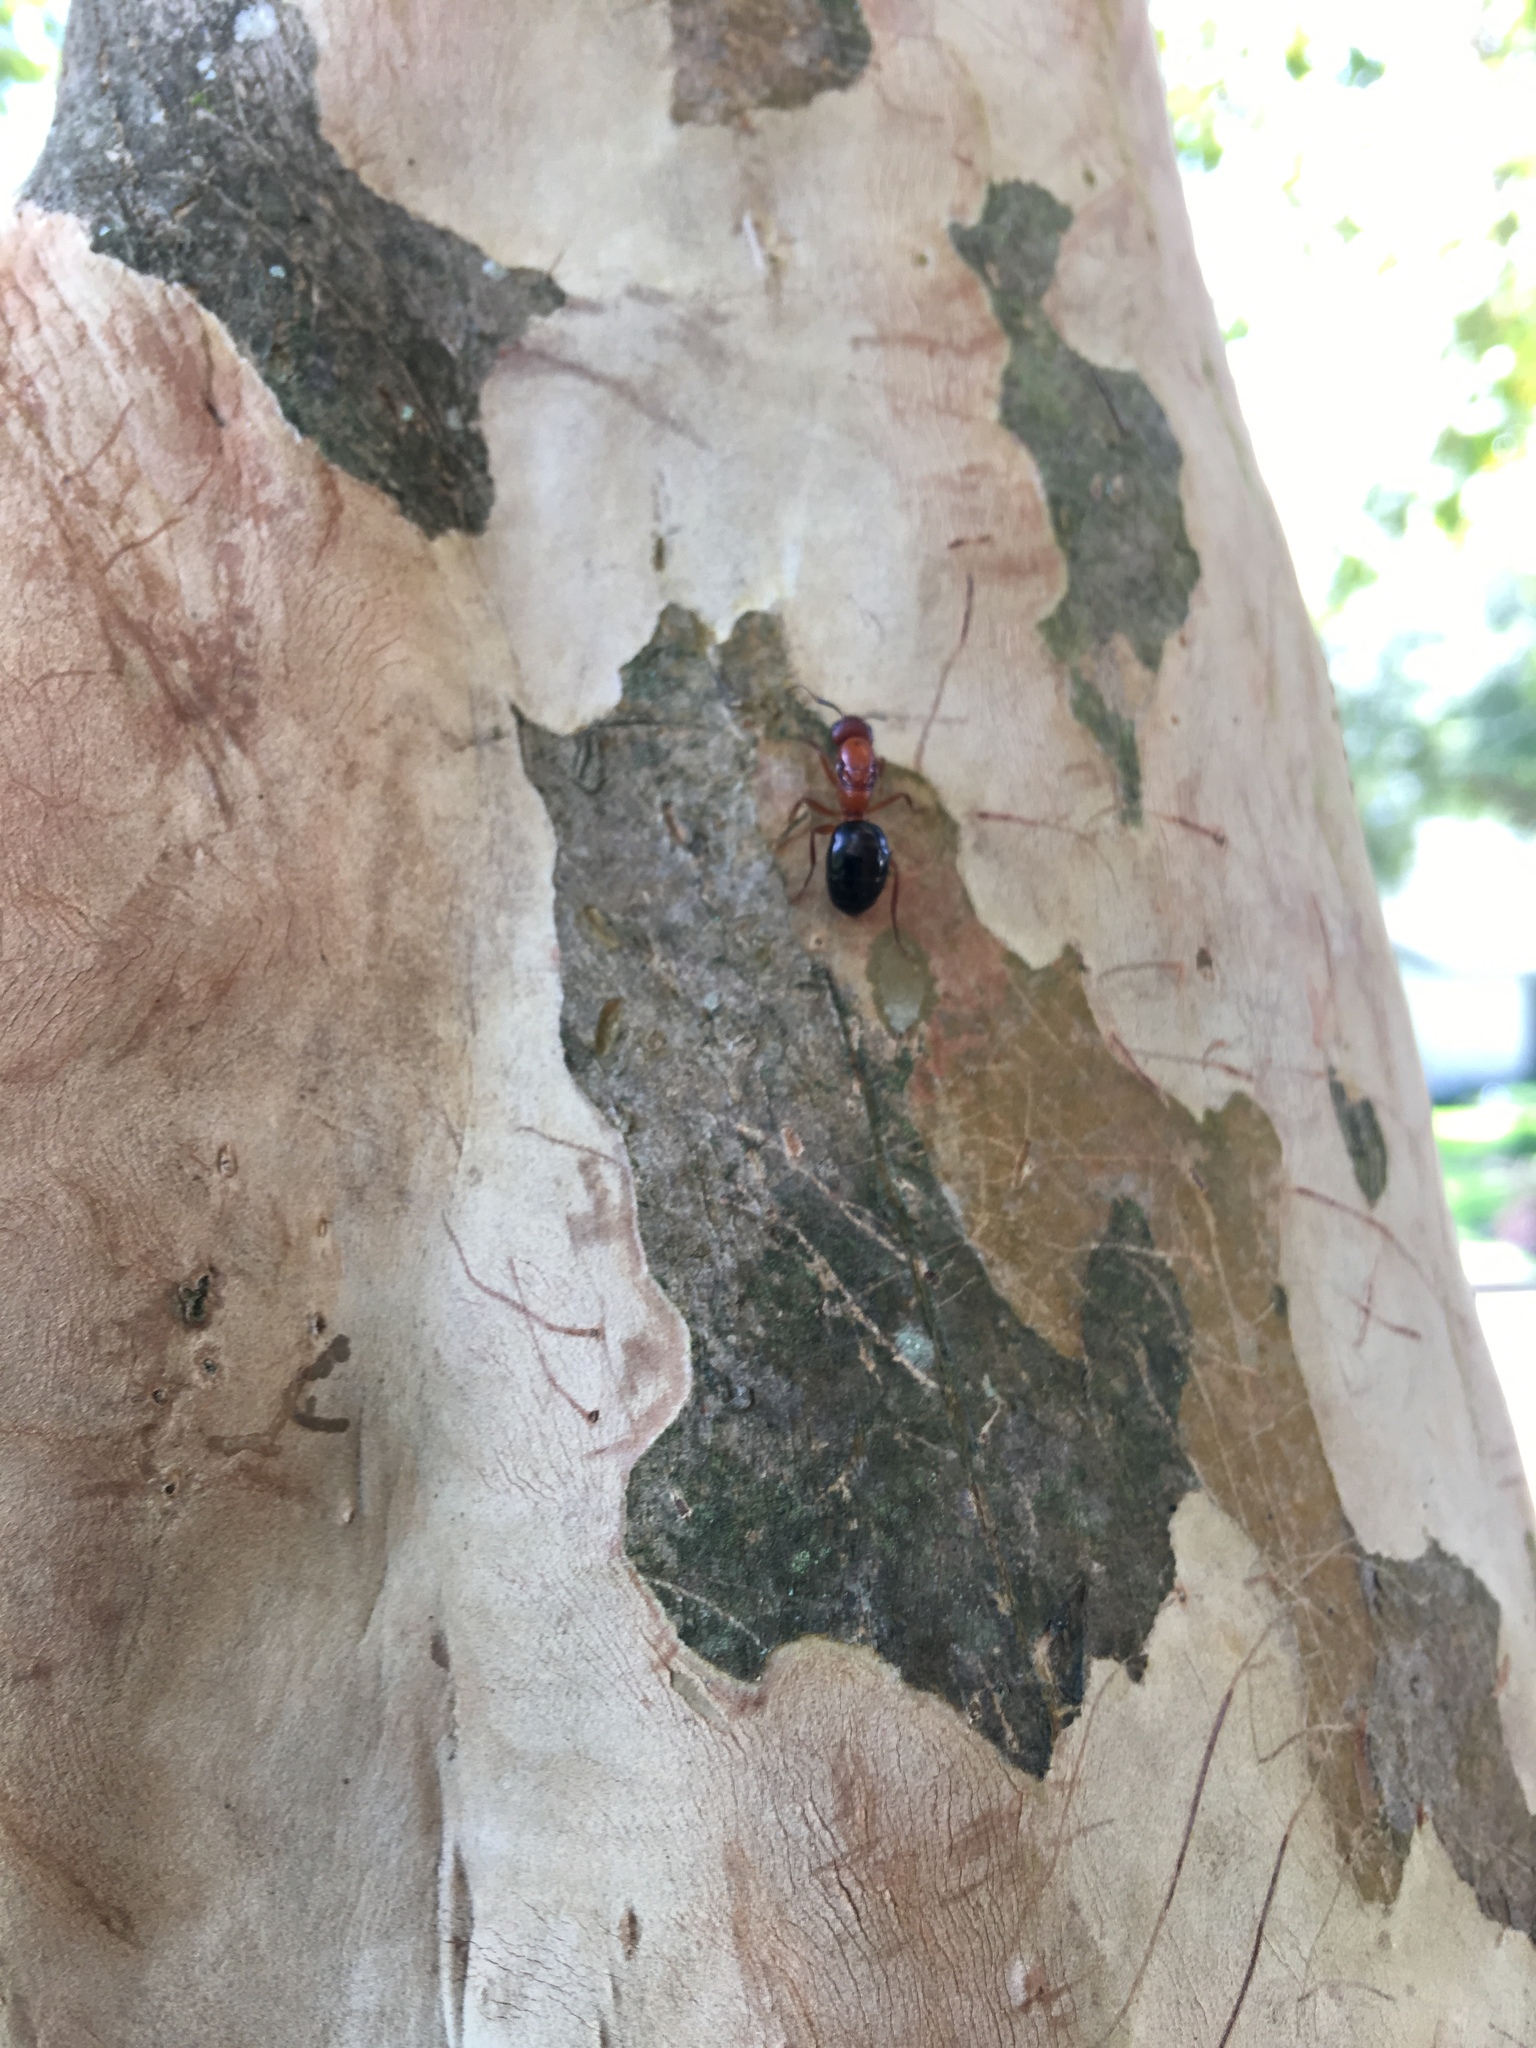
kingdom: Animalia
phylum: Arthropoda
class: Insecta
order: Hymenoptera
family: Formicidae
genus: Camponotus
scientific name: Camponotus floridanus
